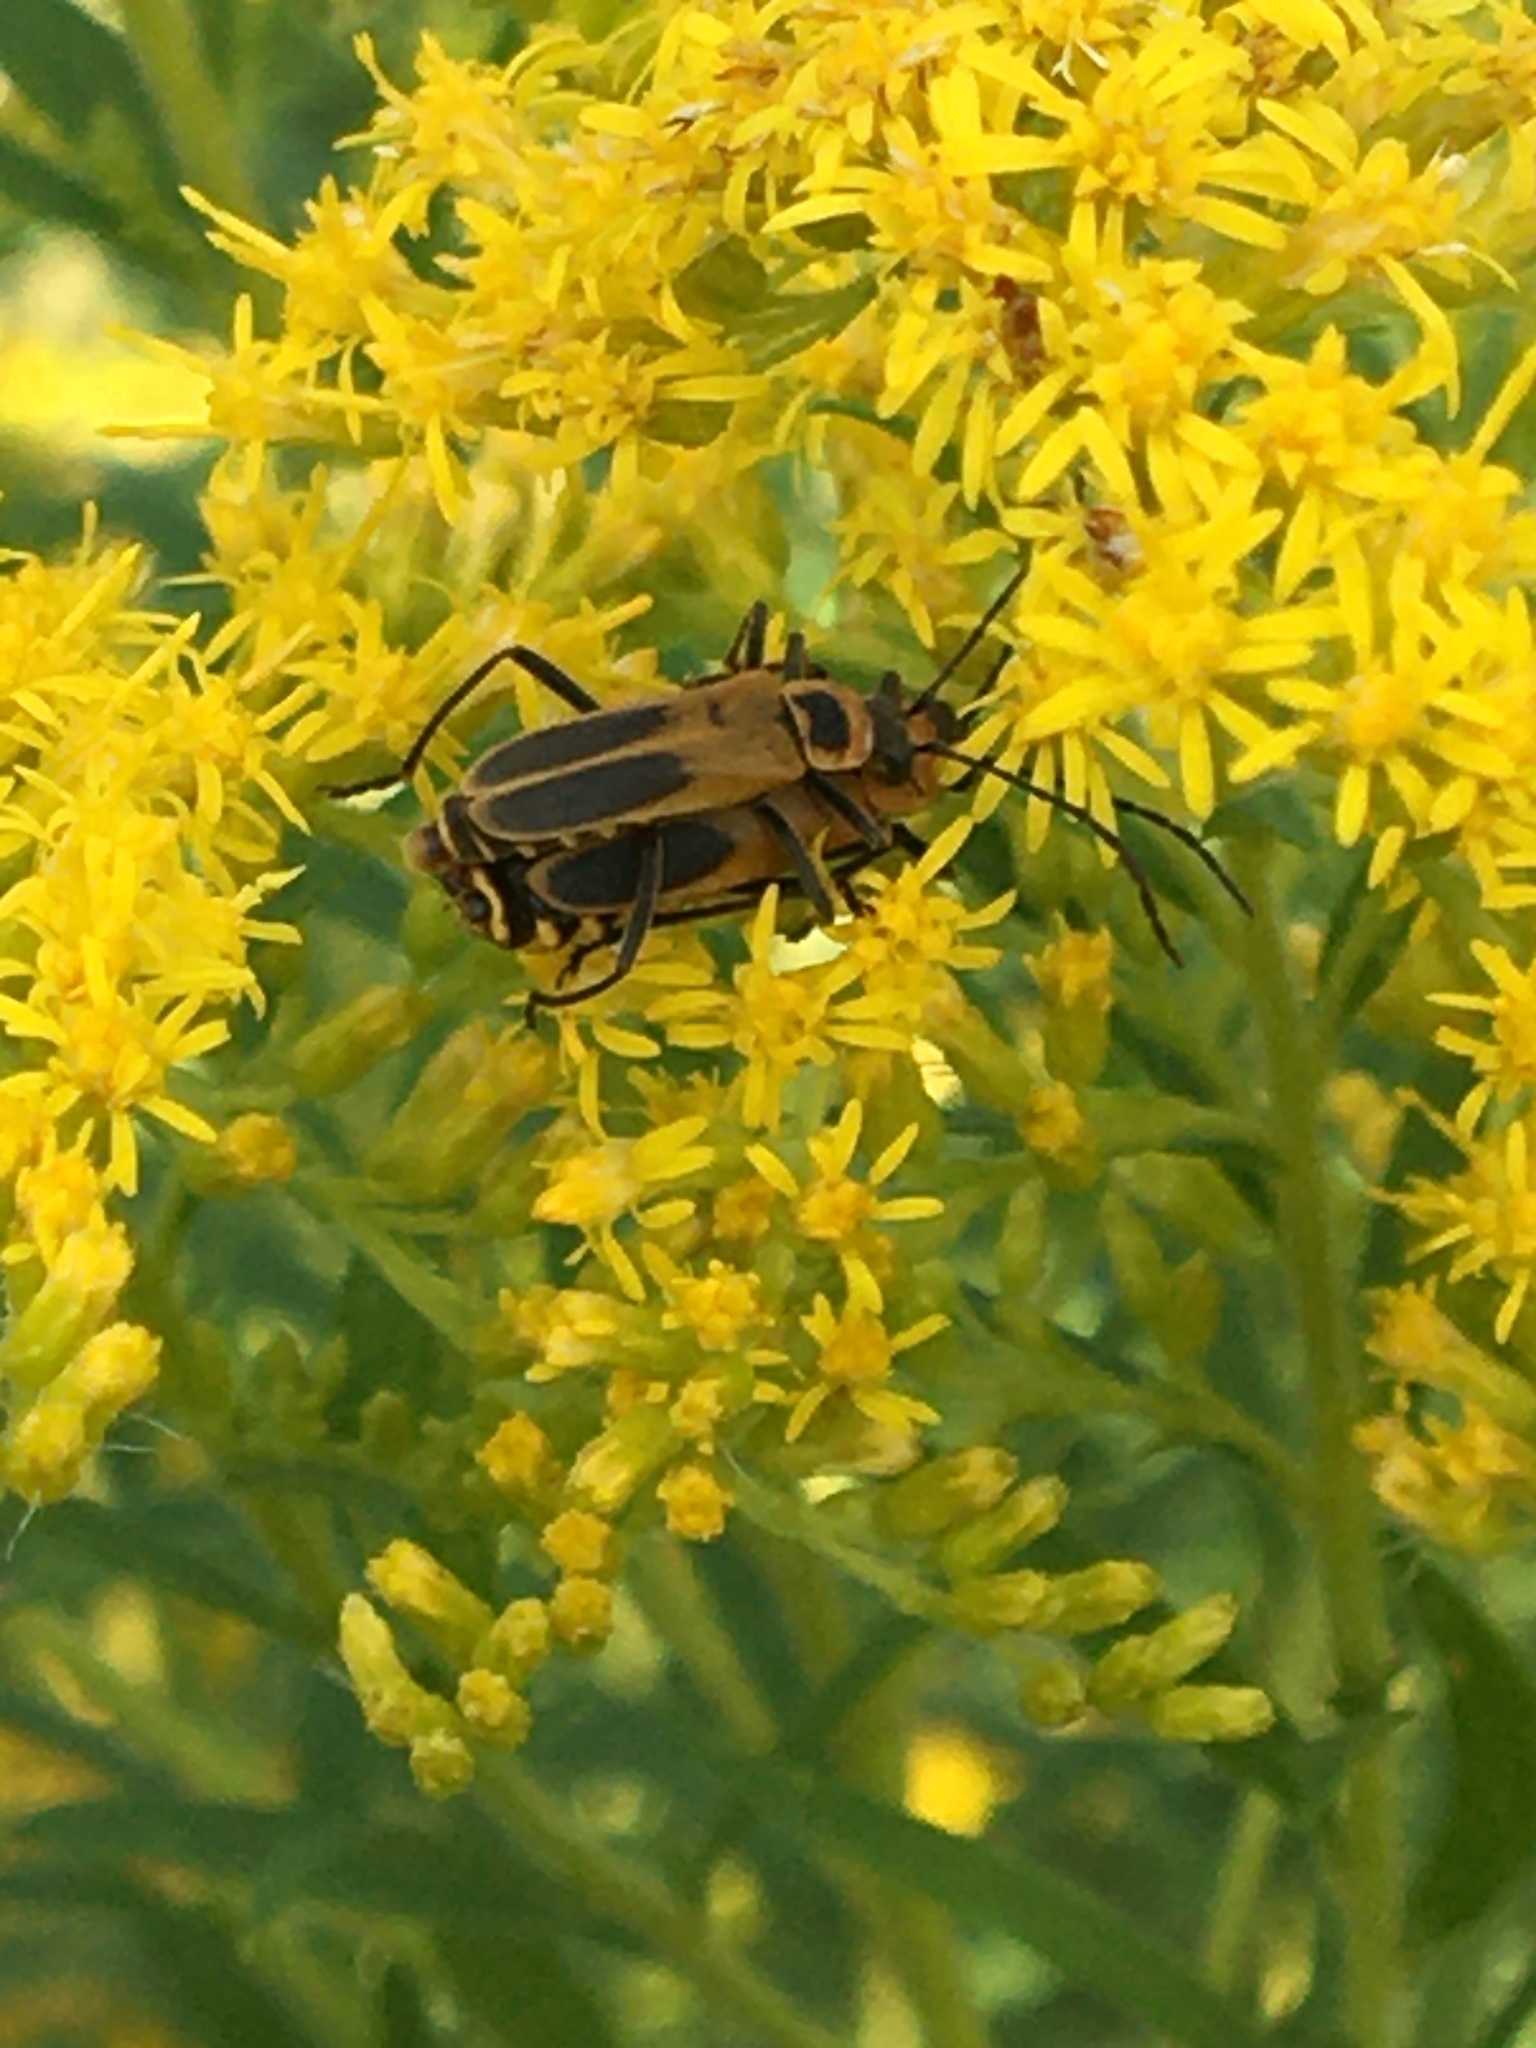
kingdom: Animalia
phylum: Arthropoda
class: Insecta
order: Coleoptera
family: Cantharidae
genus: Chauliognathus
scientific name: Chauliognathus pensylvanicus
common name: Goldenrod soldier beetle
